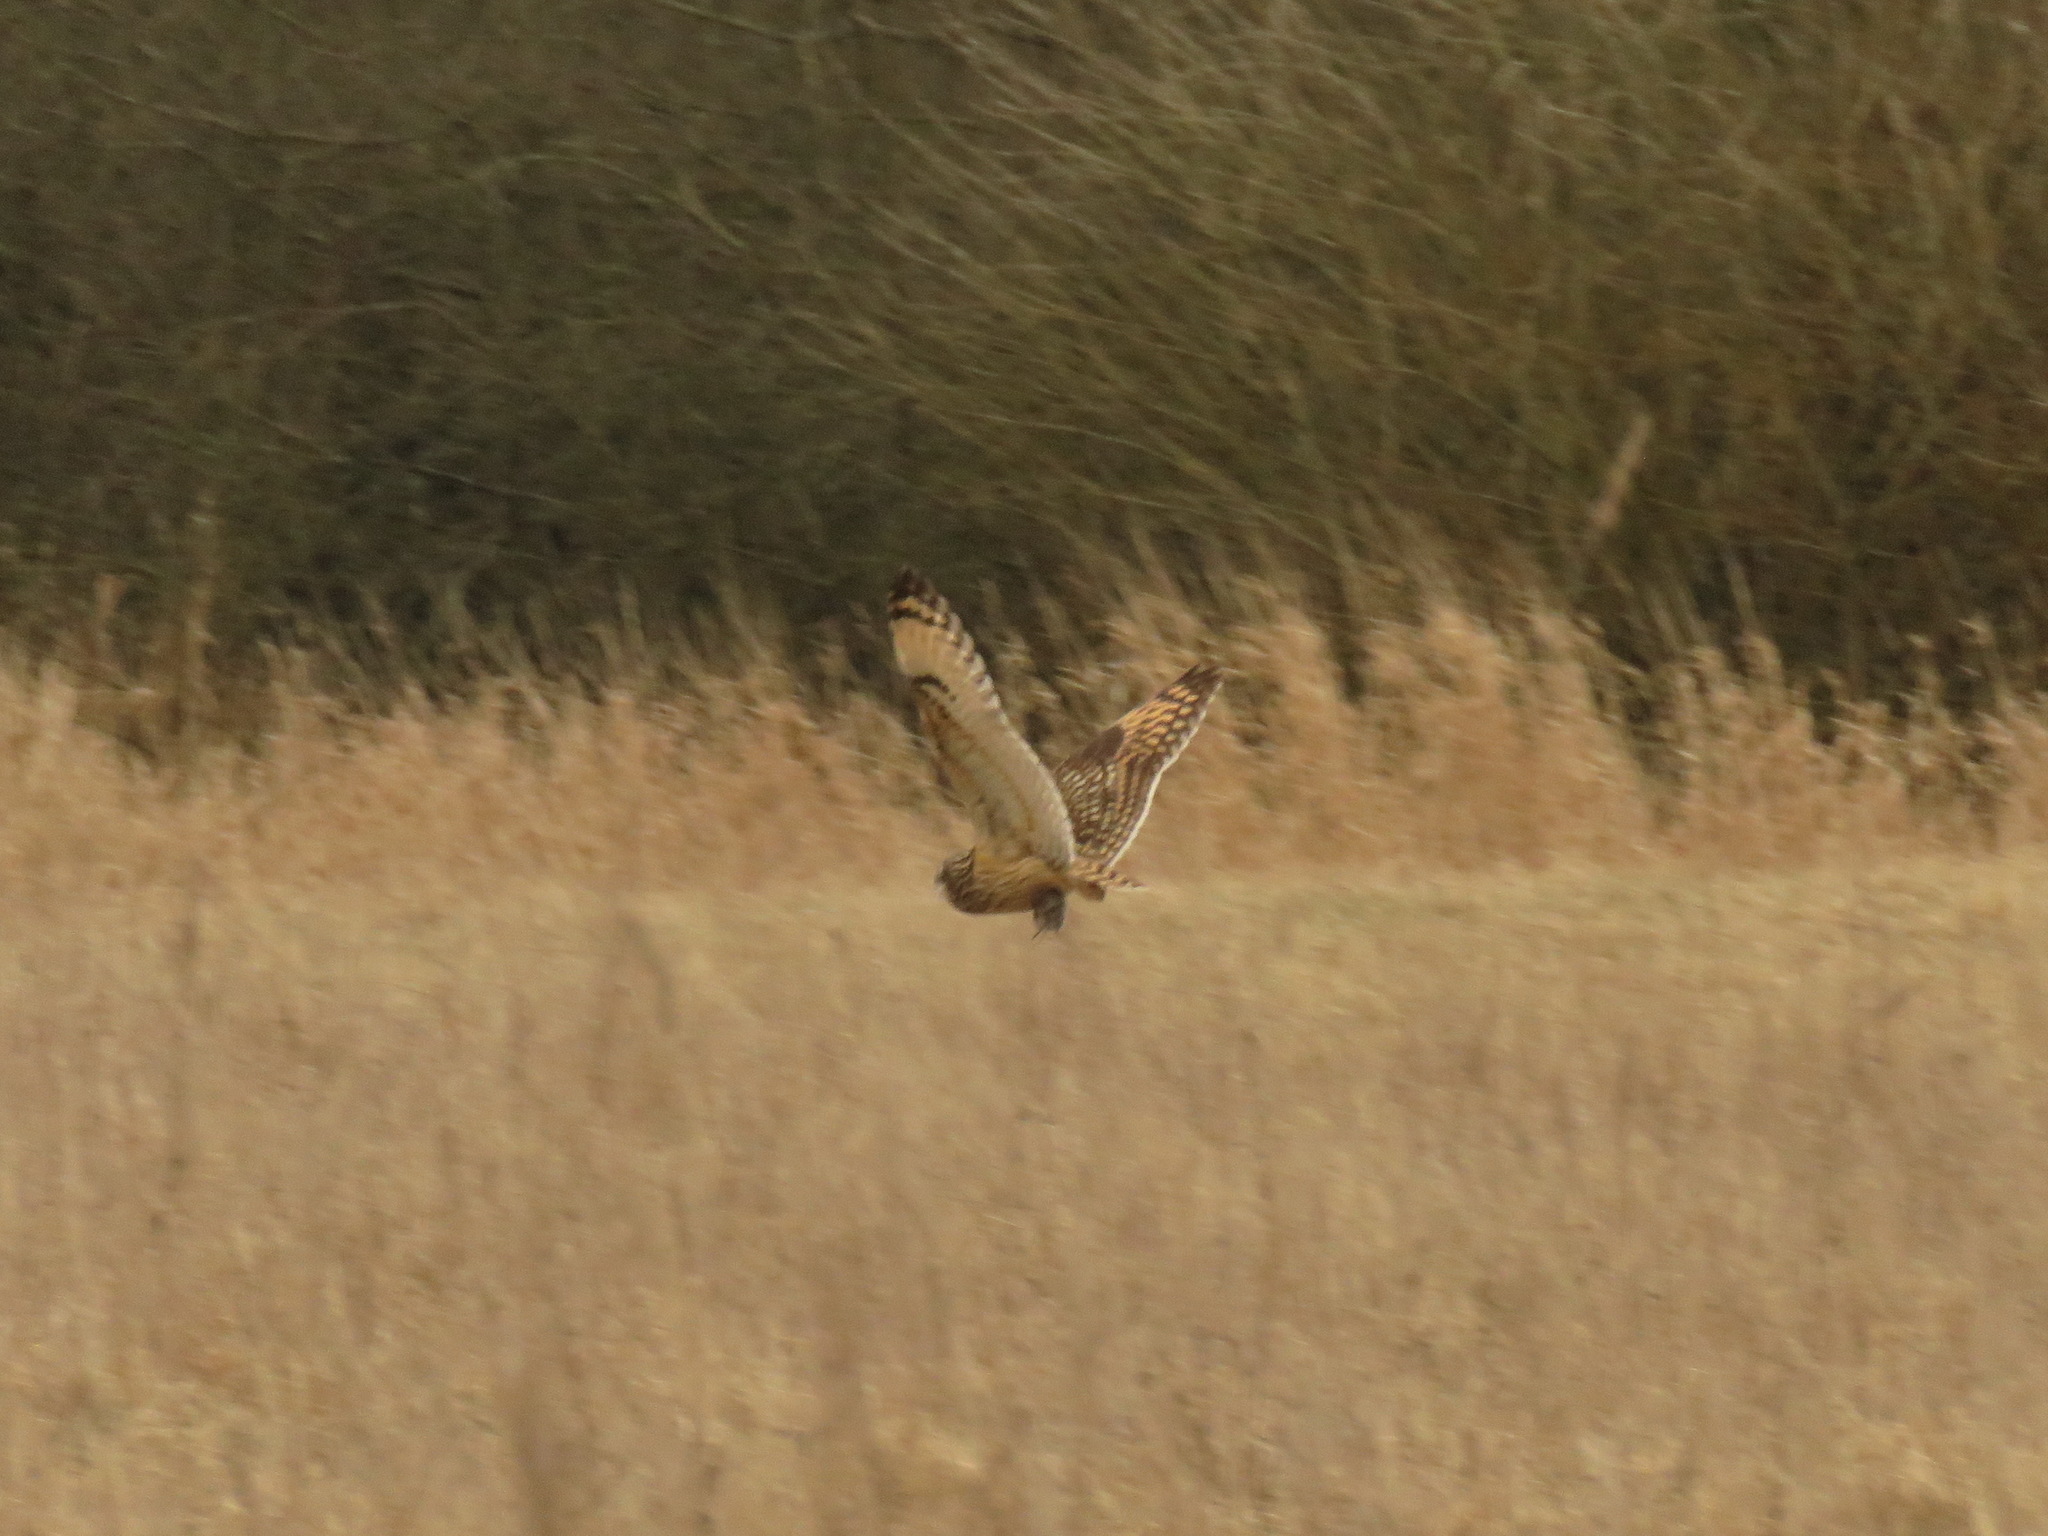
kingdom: Animalia
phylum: Chordata
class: Aves
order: Strigiformes
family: Strigidae
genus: Asio
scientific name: Asio flammeus
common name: Short-eared owl
